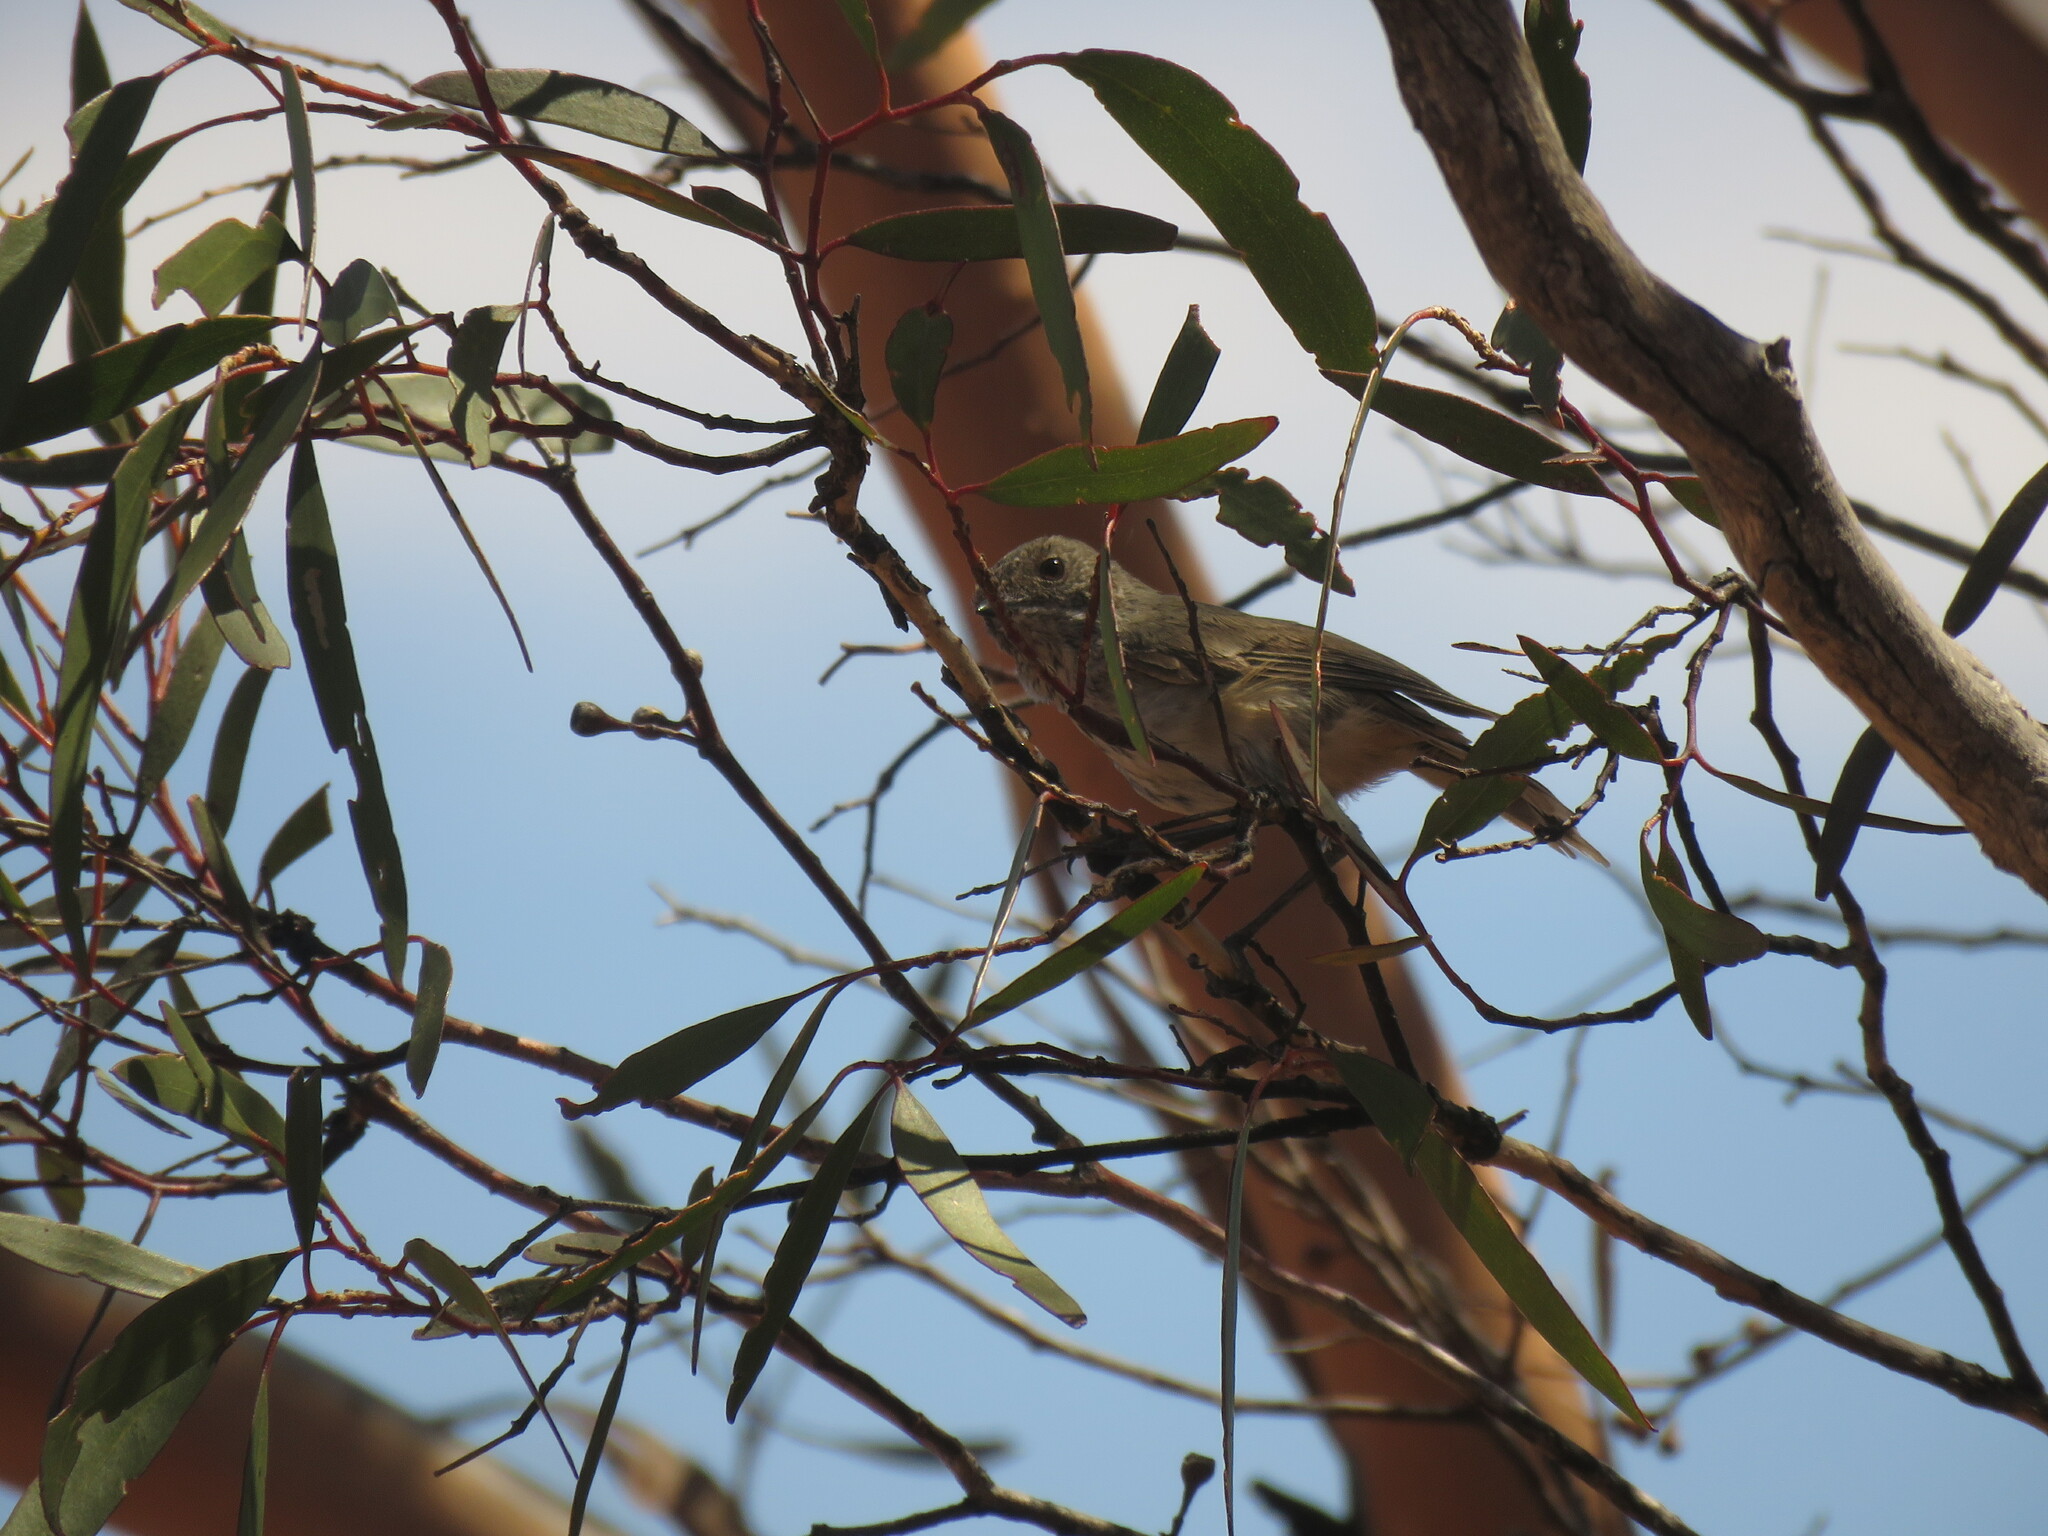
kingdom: Animalia
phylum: Chordata
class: Aves
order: Passeriformes
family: Acanthizidae
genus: Acanthiza
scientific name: Acanthiza apicalis
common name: Inland thornbill
